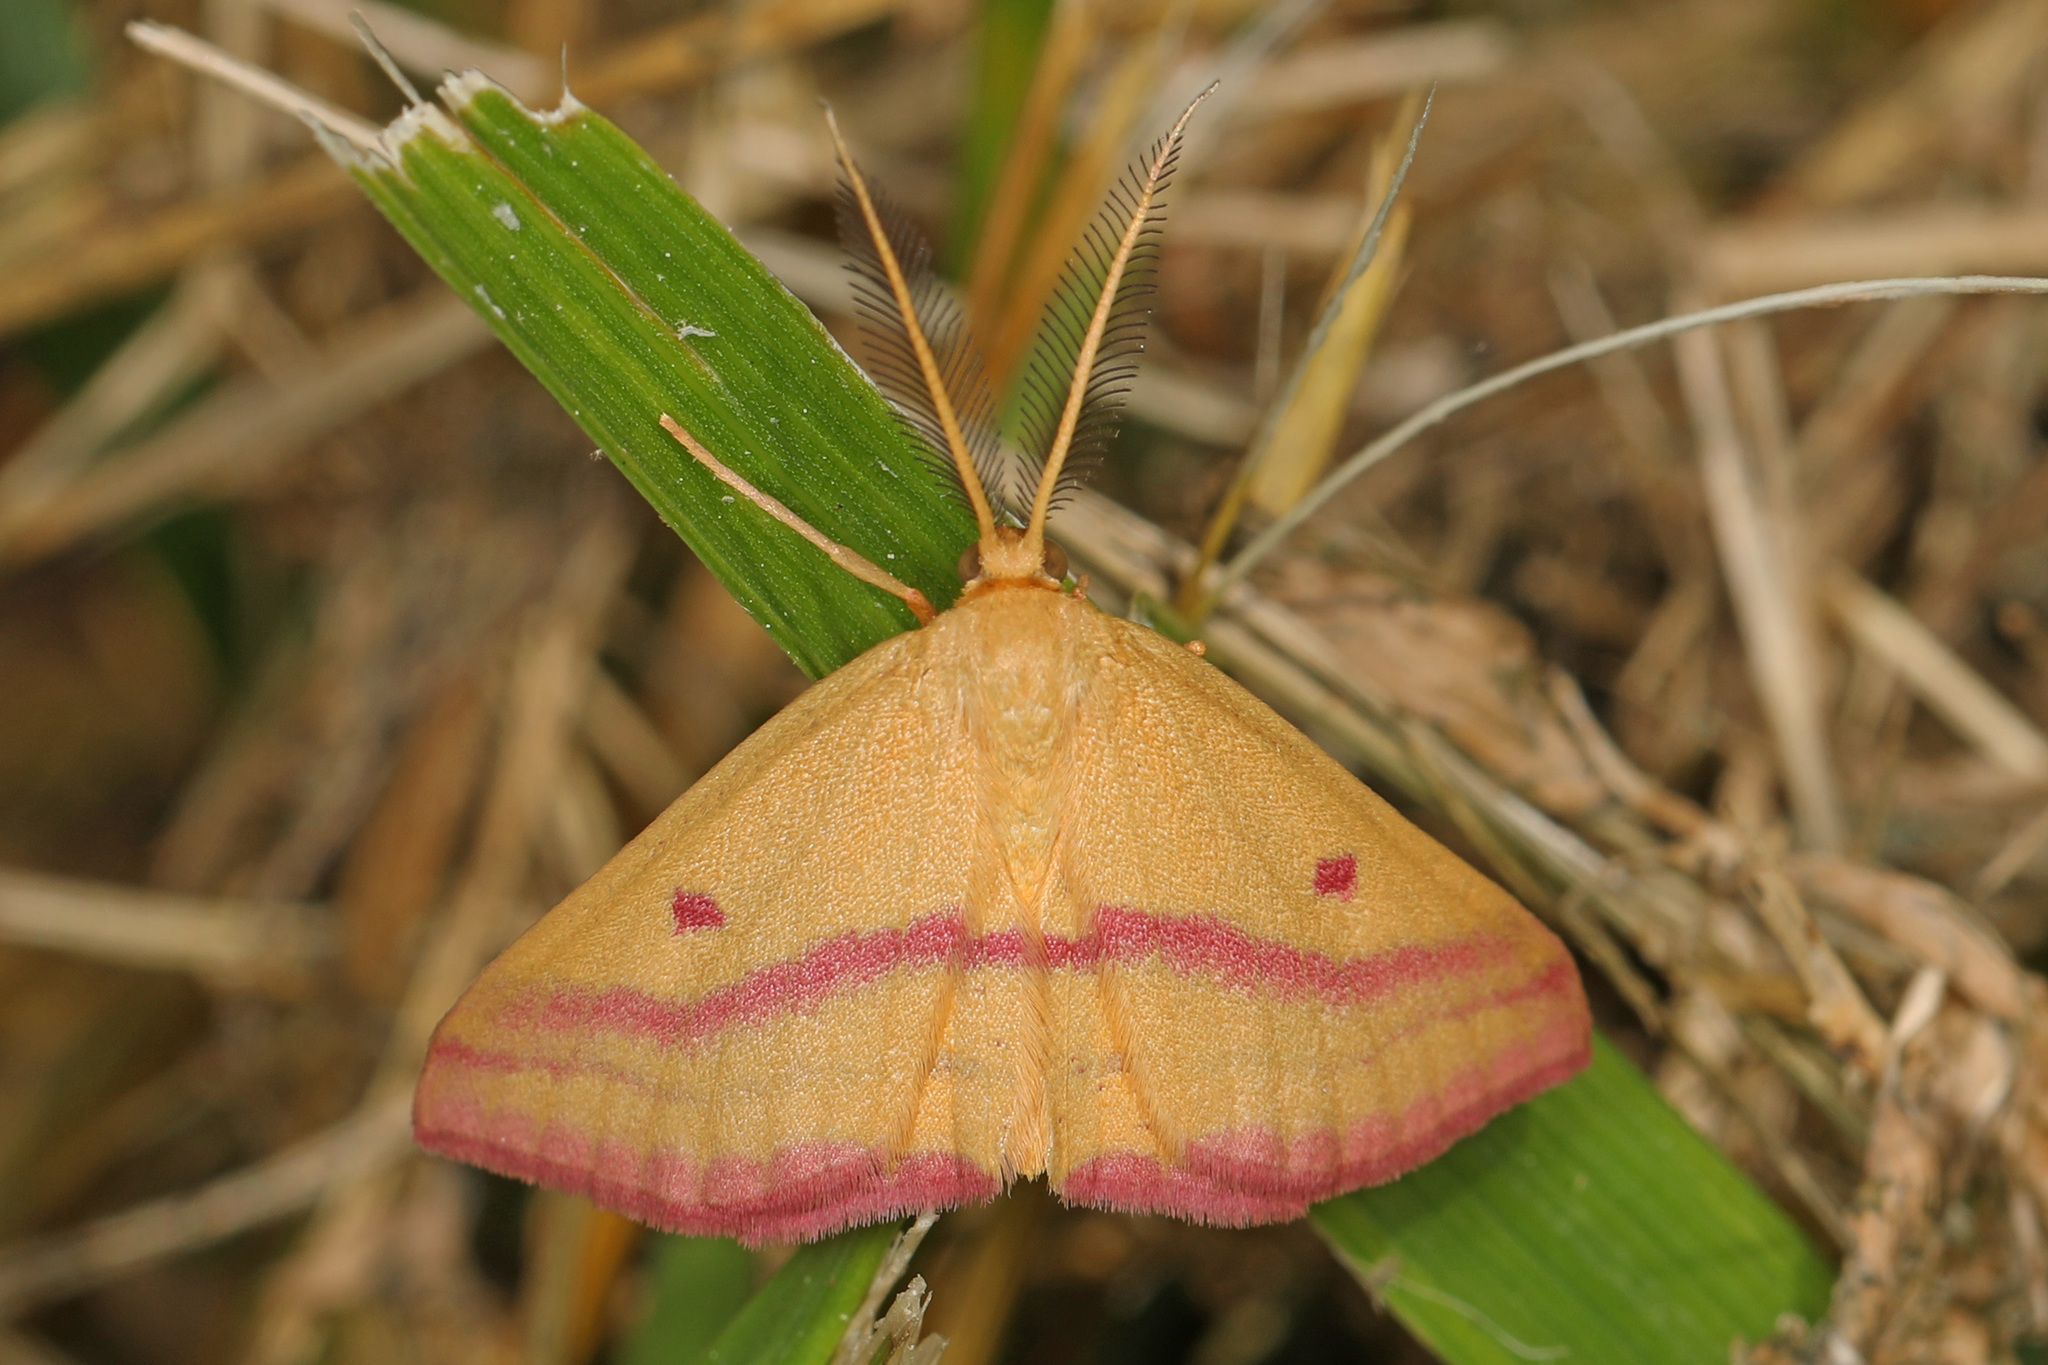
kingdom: Animalia
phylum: Arthropoda
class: Insecta
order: Lepidoptera
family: Geometridae
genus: Haematopis
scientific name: Haematopis grataria
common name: Chickweed geometer
